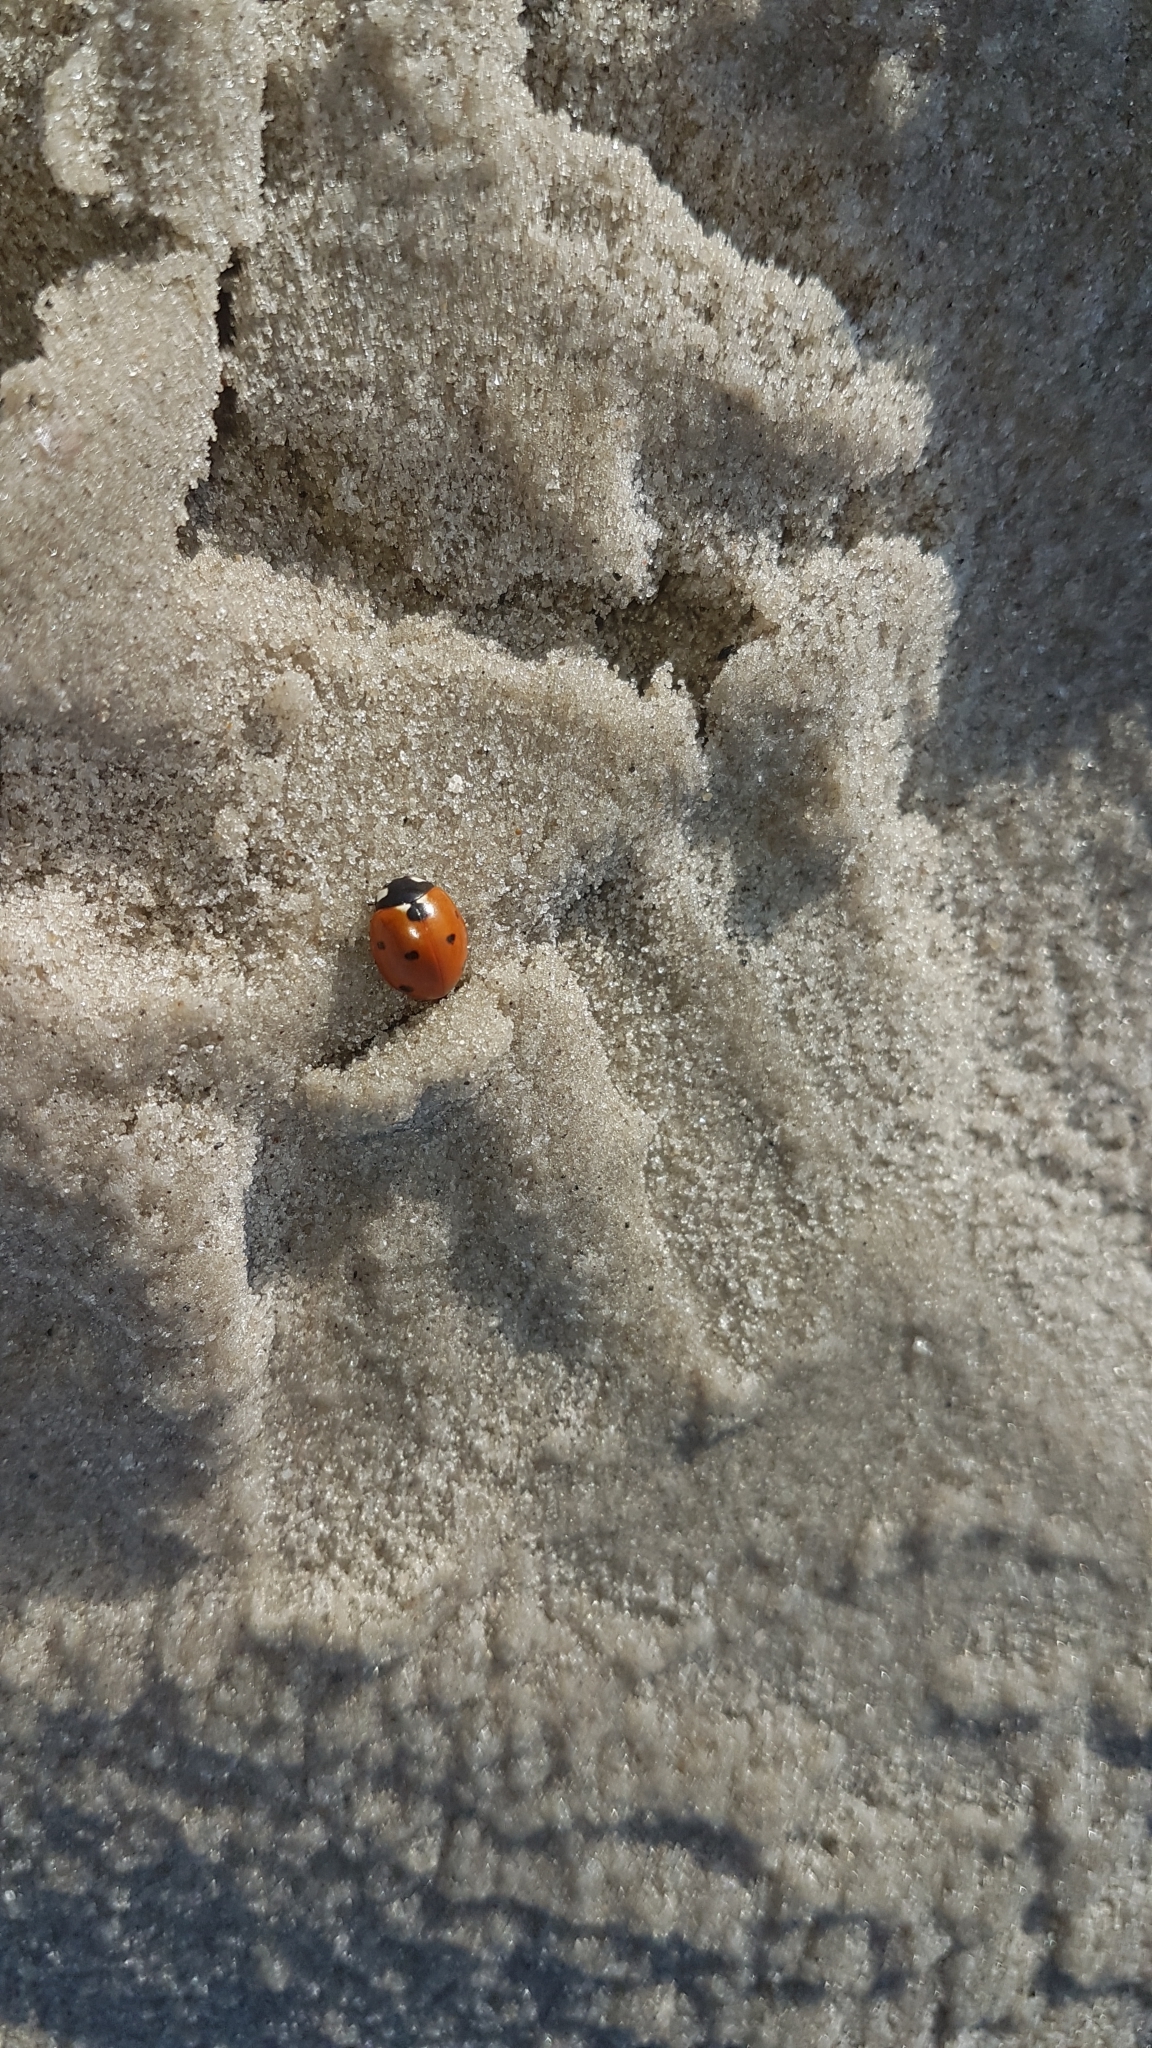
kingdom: Animalia
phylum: Arthropoda
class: Insecta
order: Coleoptera
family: Coccinellidae
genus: Coccinella
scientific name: Coccinella septempunctata
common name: Sevenspotted lady beetle
